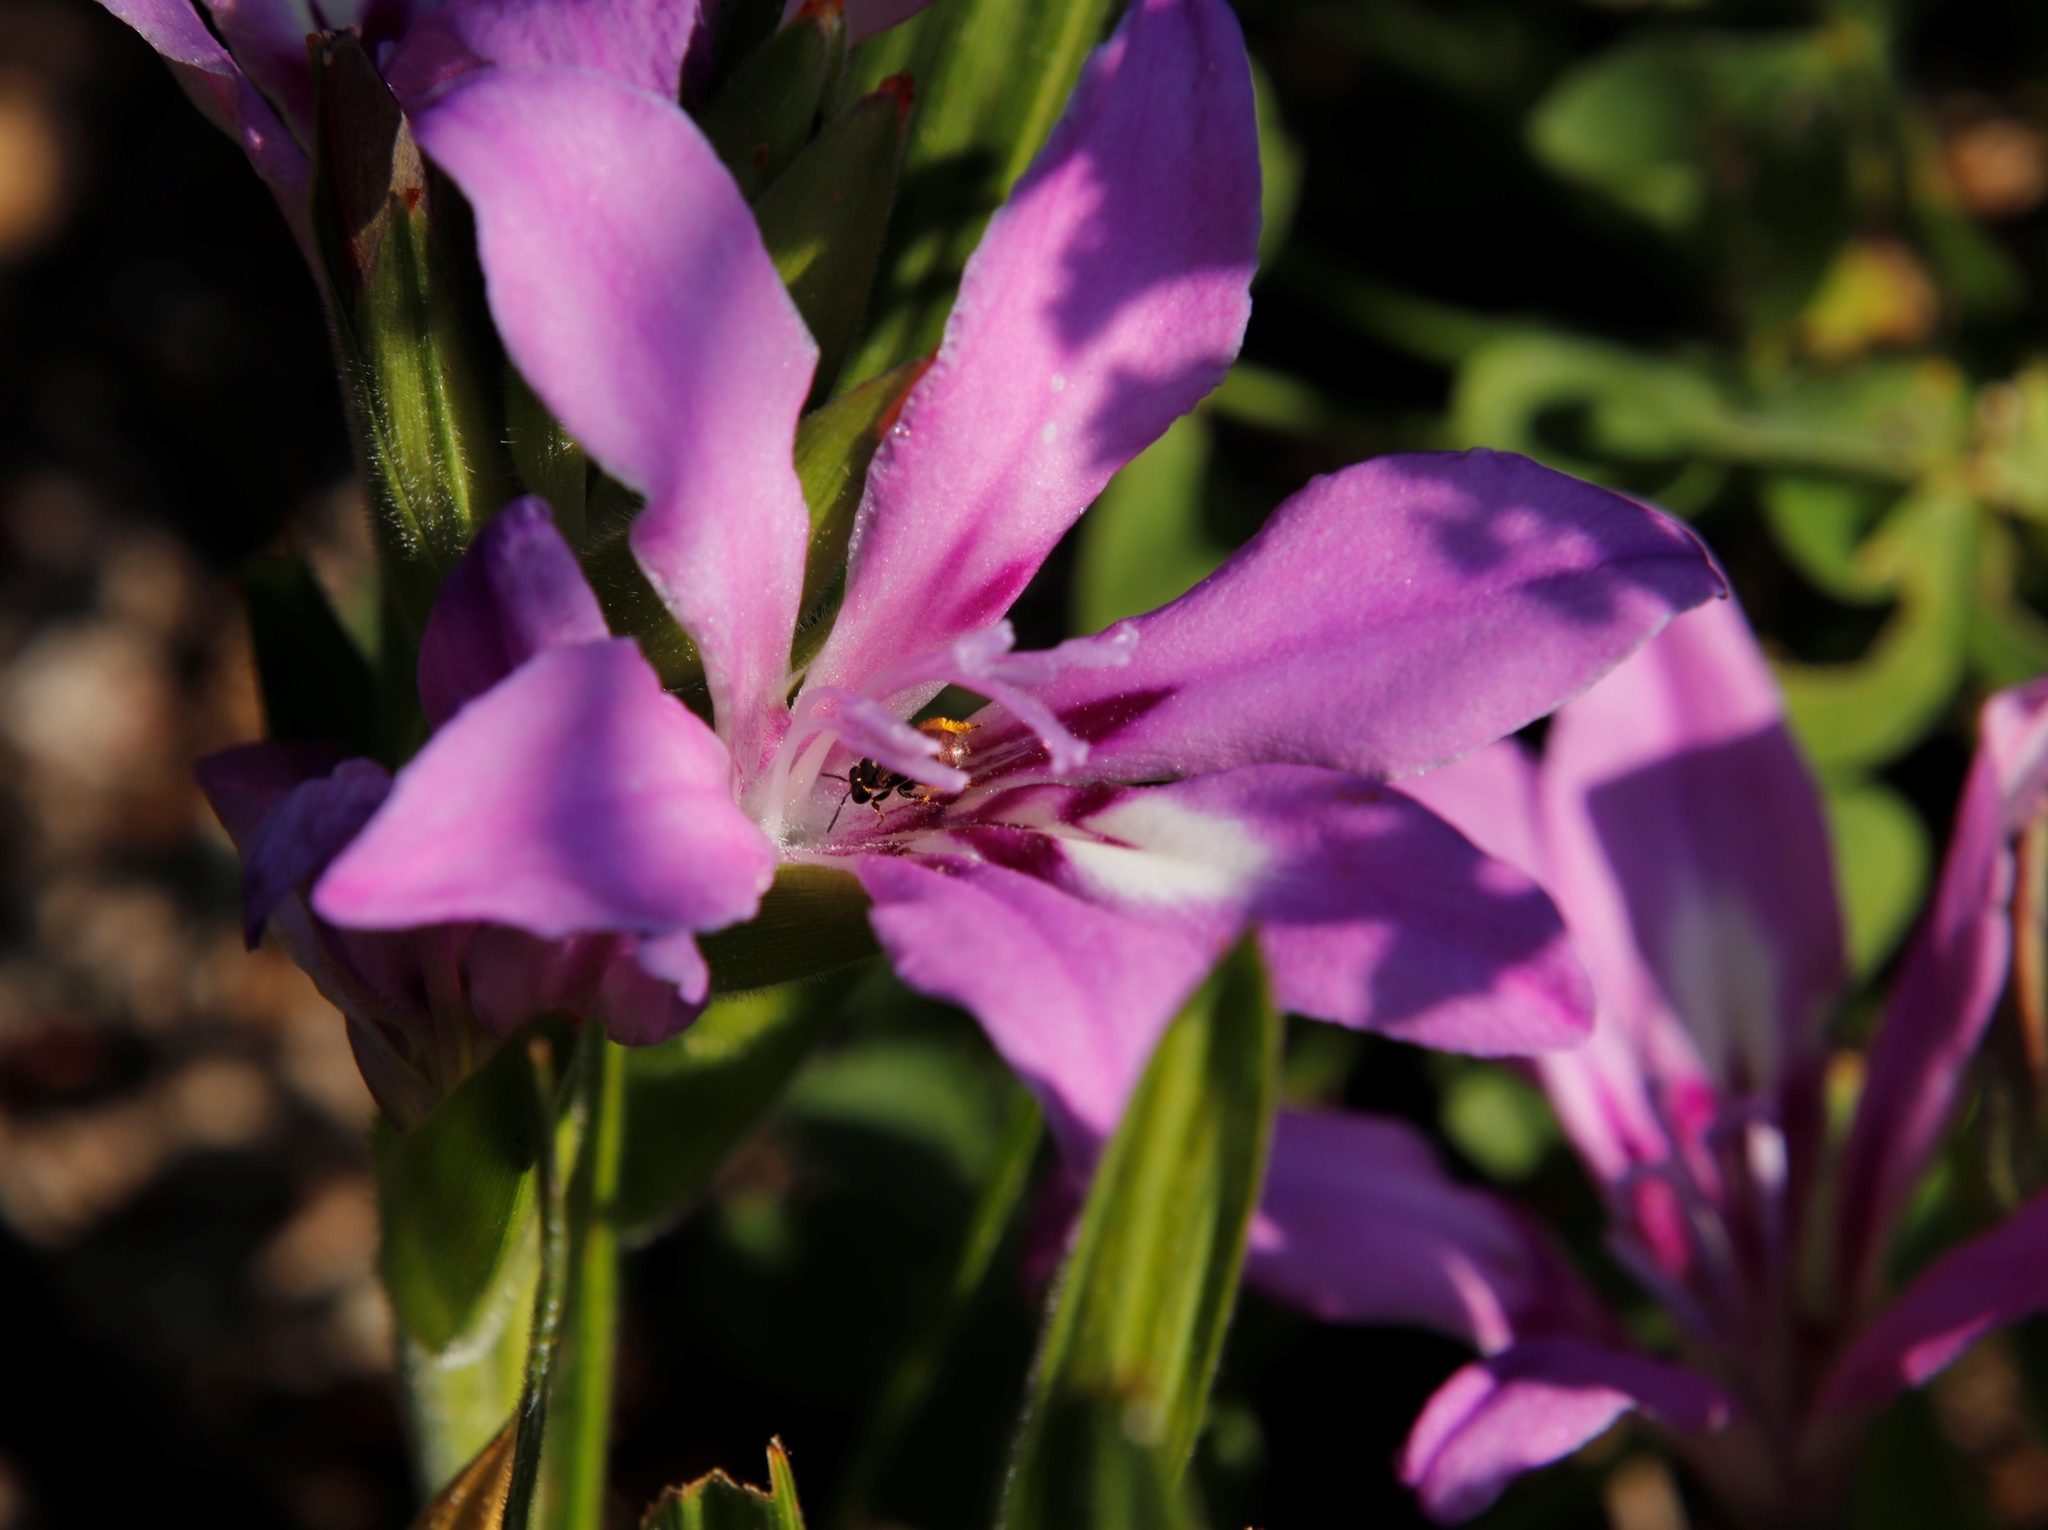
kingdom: Plantae
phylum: Tracheophyta
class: Liliopsida
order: Asparagales
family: Iridaceae
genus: Babiana
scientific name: Babiana nana
